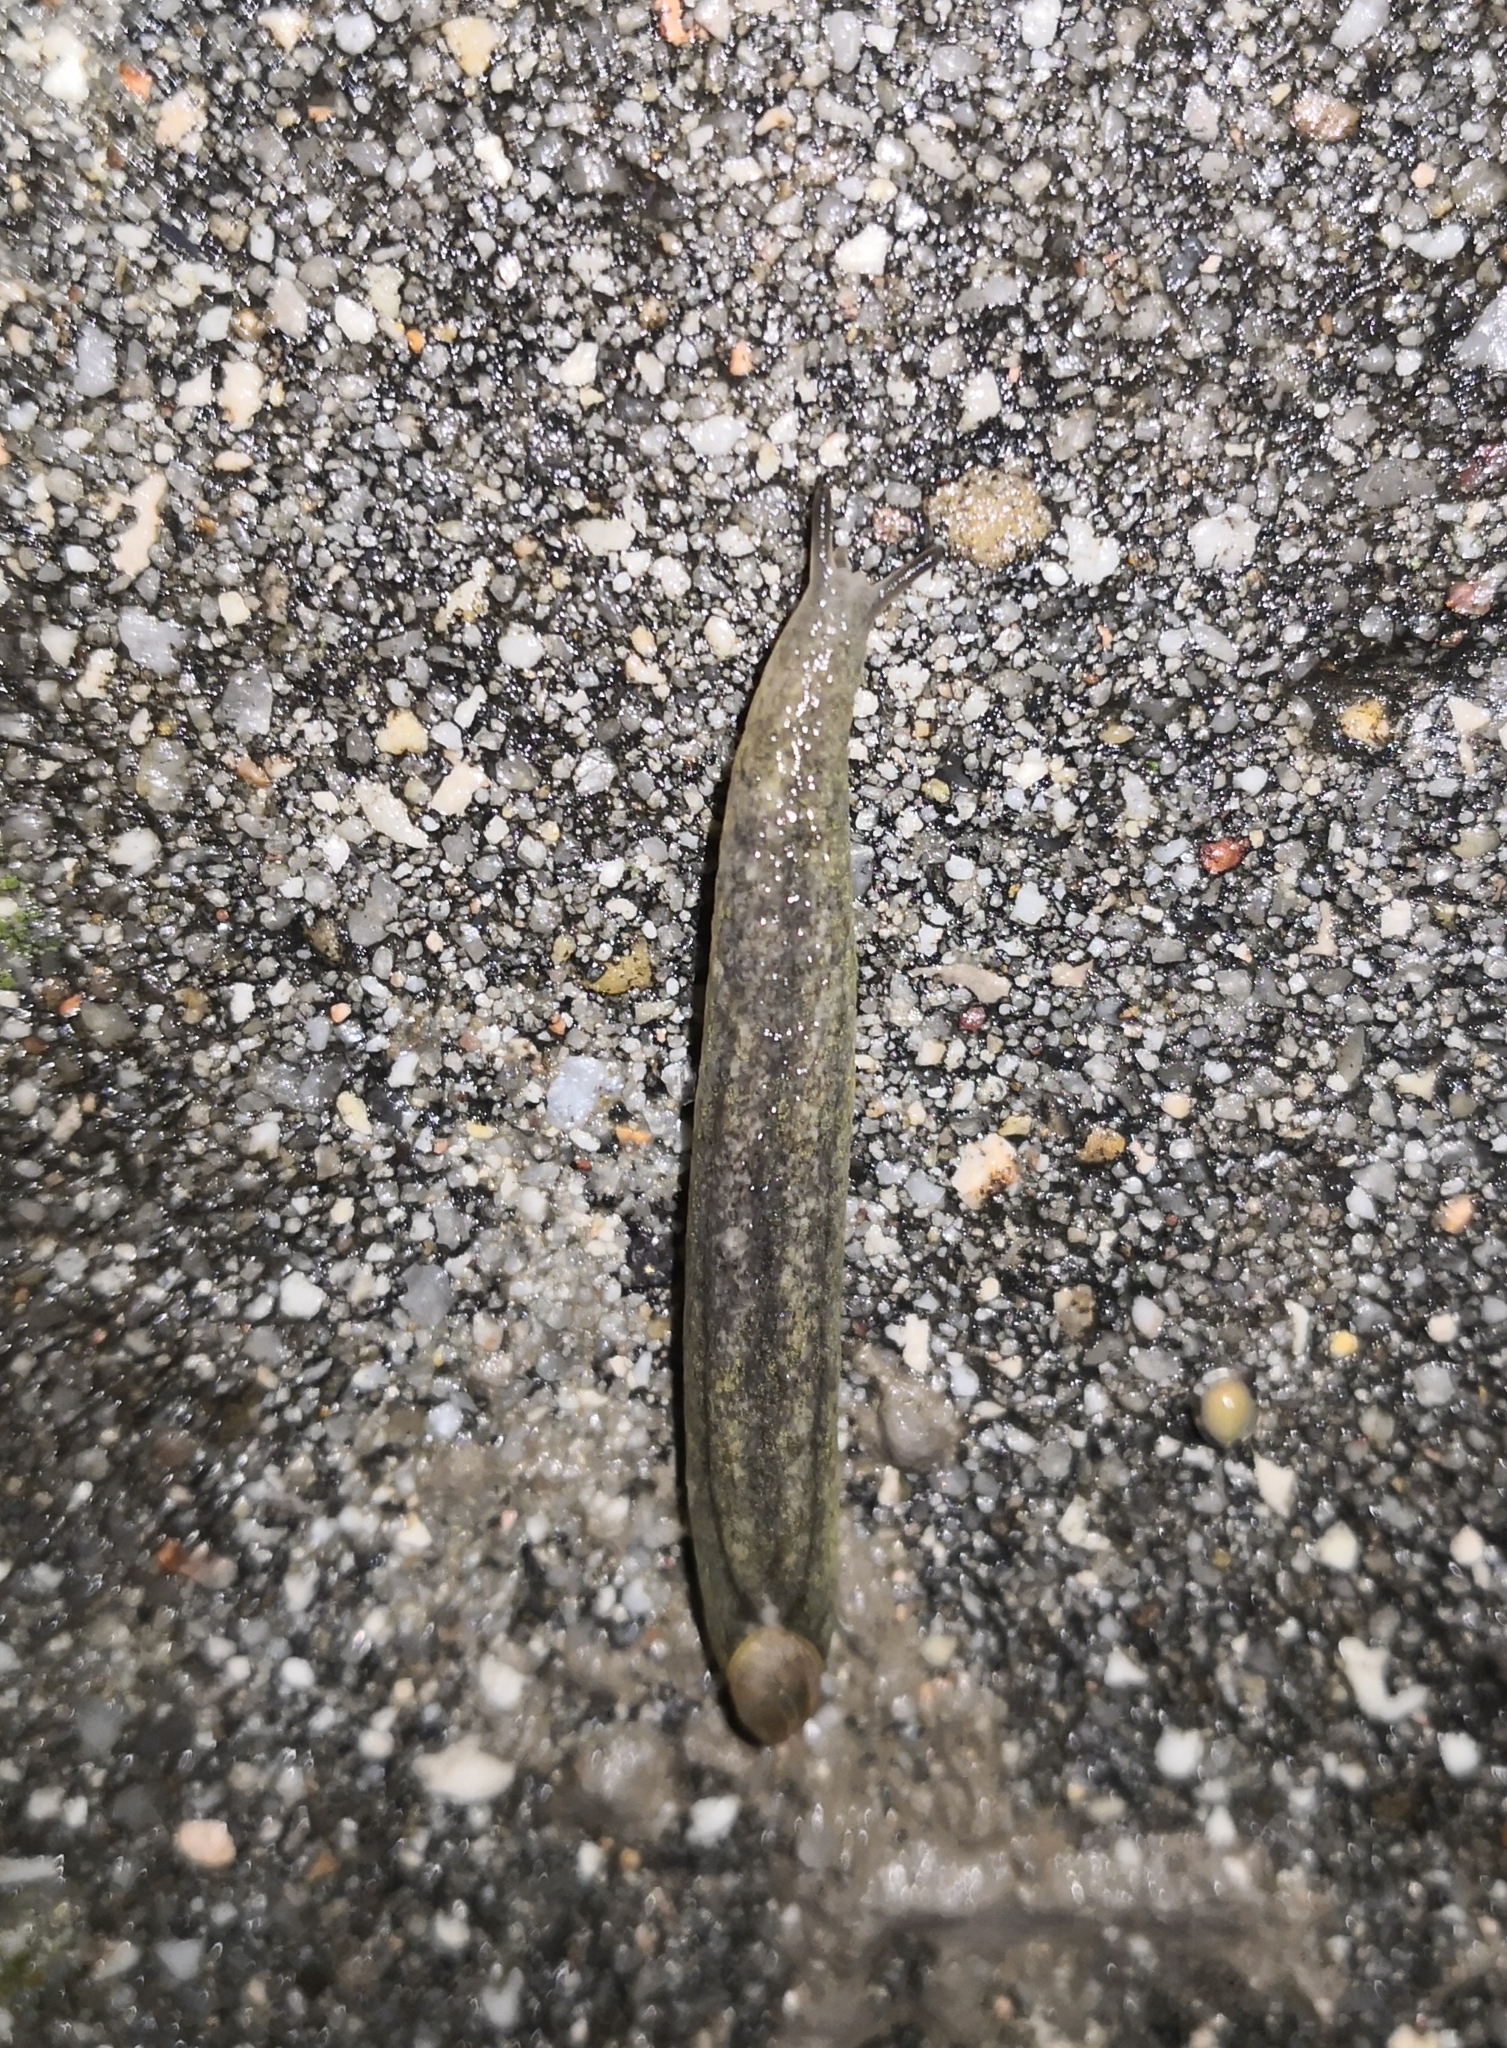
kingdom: Animalia
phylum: Mollusca
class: Gastropoda
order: Stylommatophora
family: Testacellidae
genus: Testacella
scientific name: Testacella haliotidea
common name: Shelled slug
